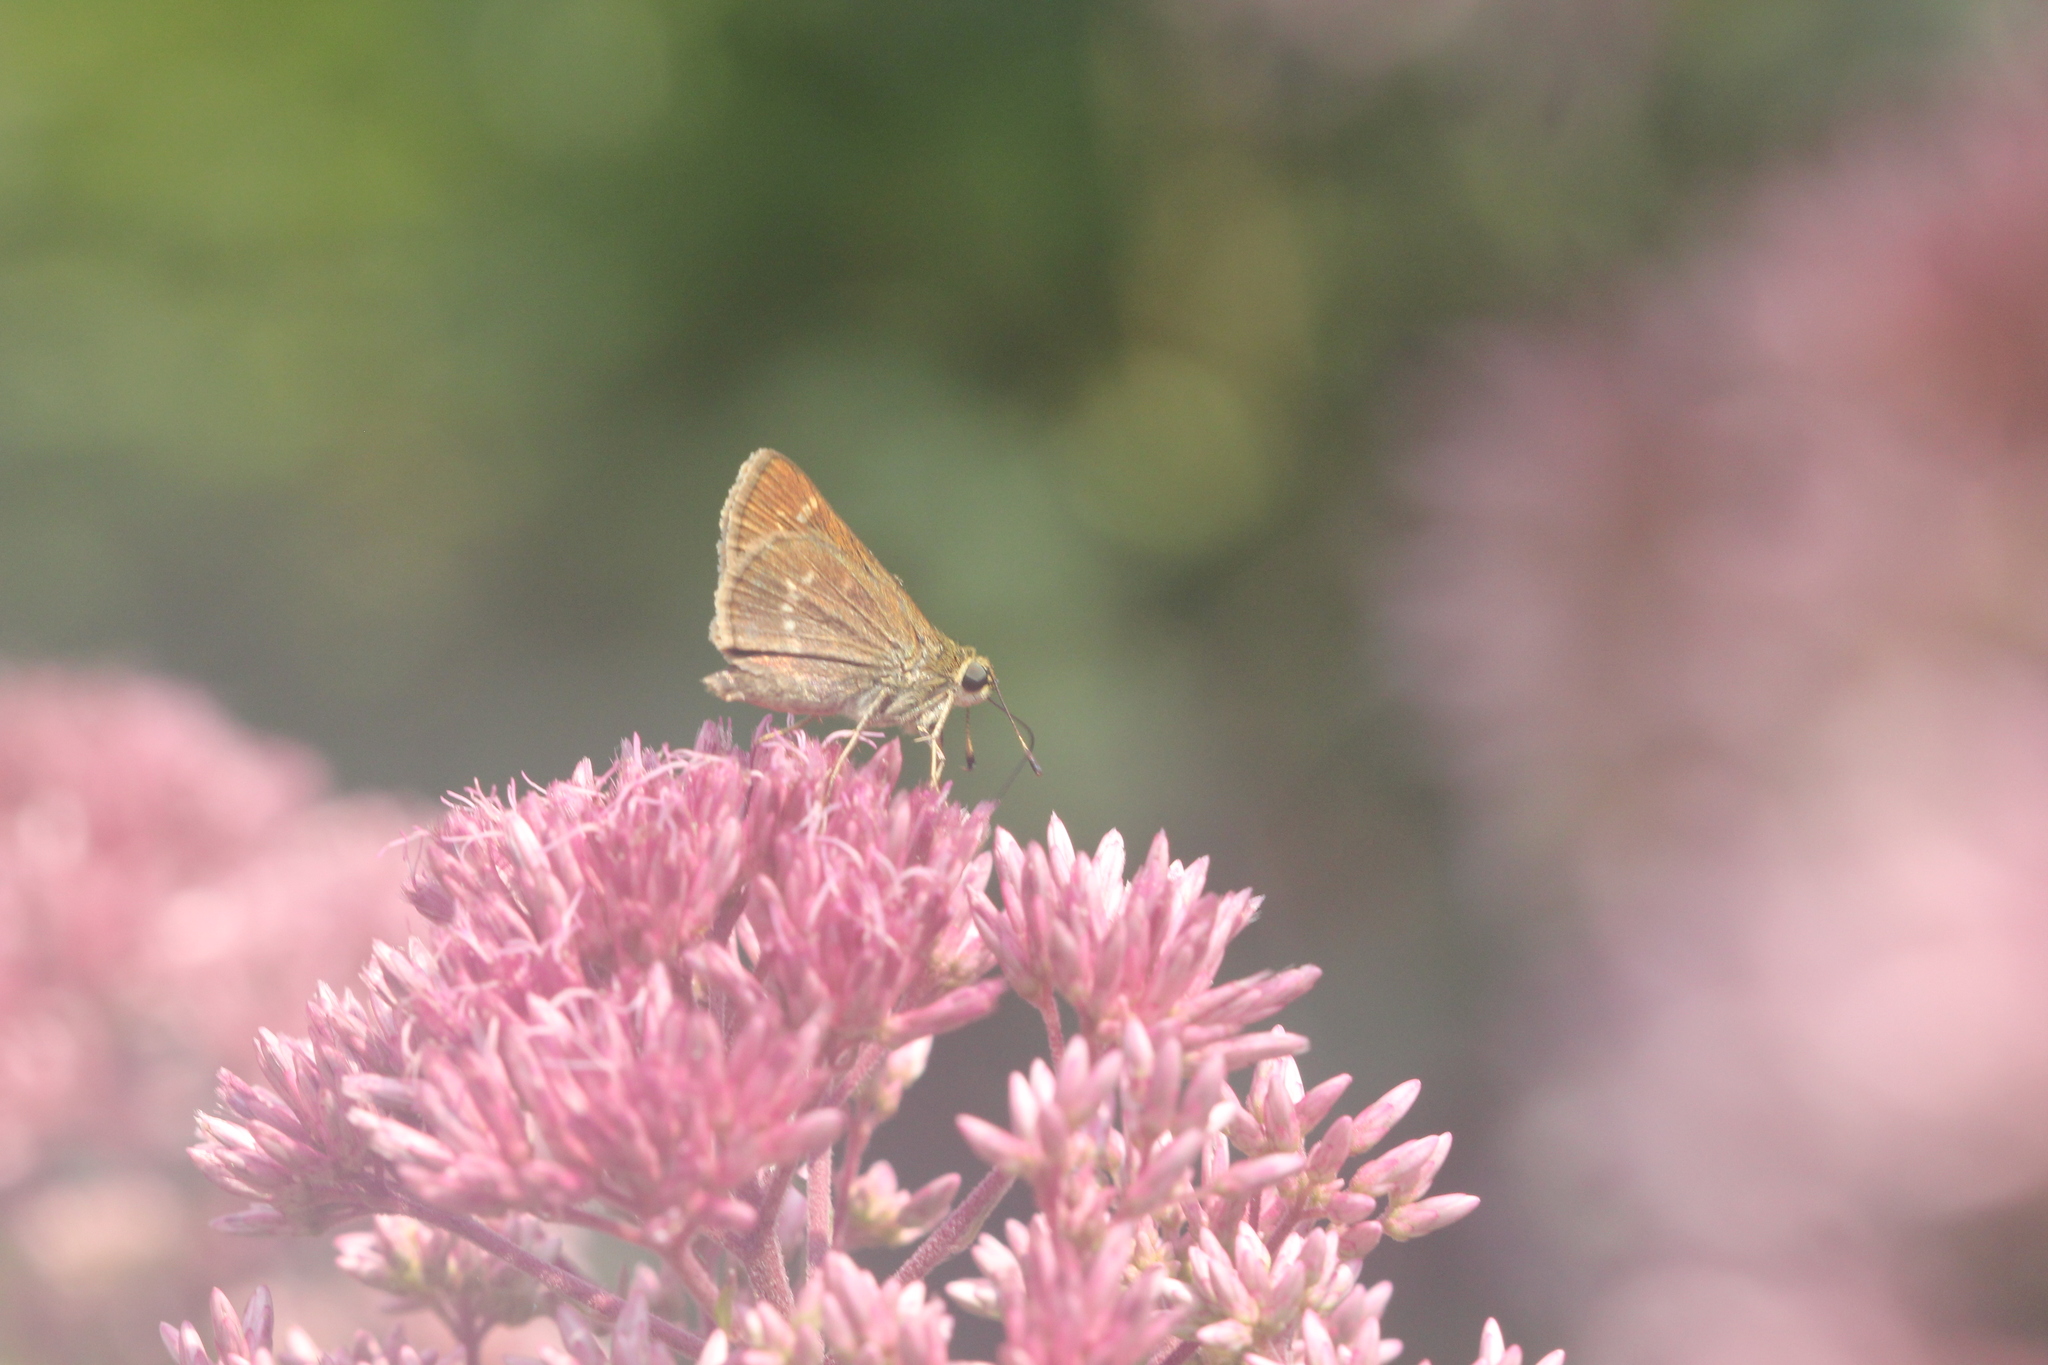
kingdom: Animalia
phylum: Arthropoda
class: Insecta
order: Lepidoptera
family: Hesperiidae
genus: Vernia
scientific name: Vernia verna
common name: Little glassywing
